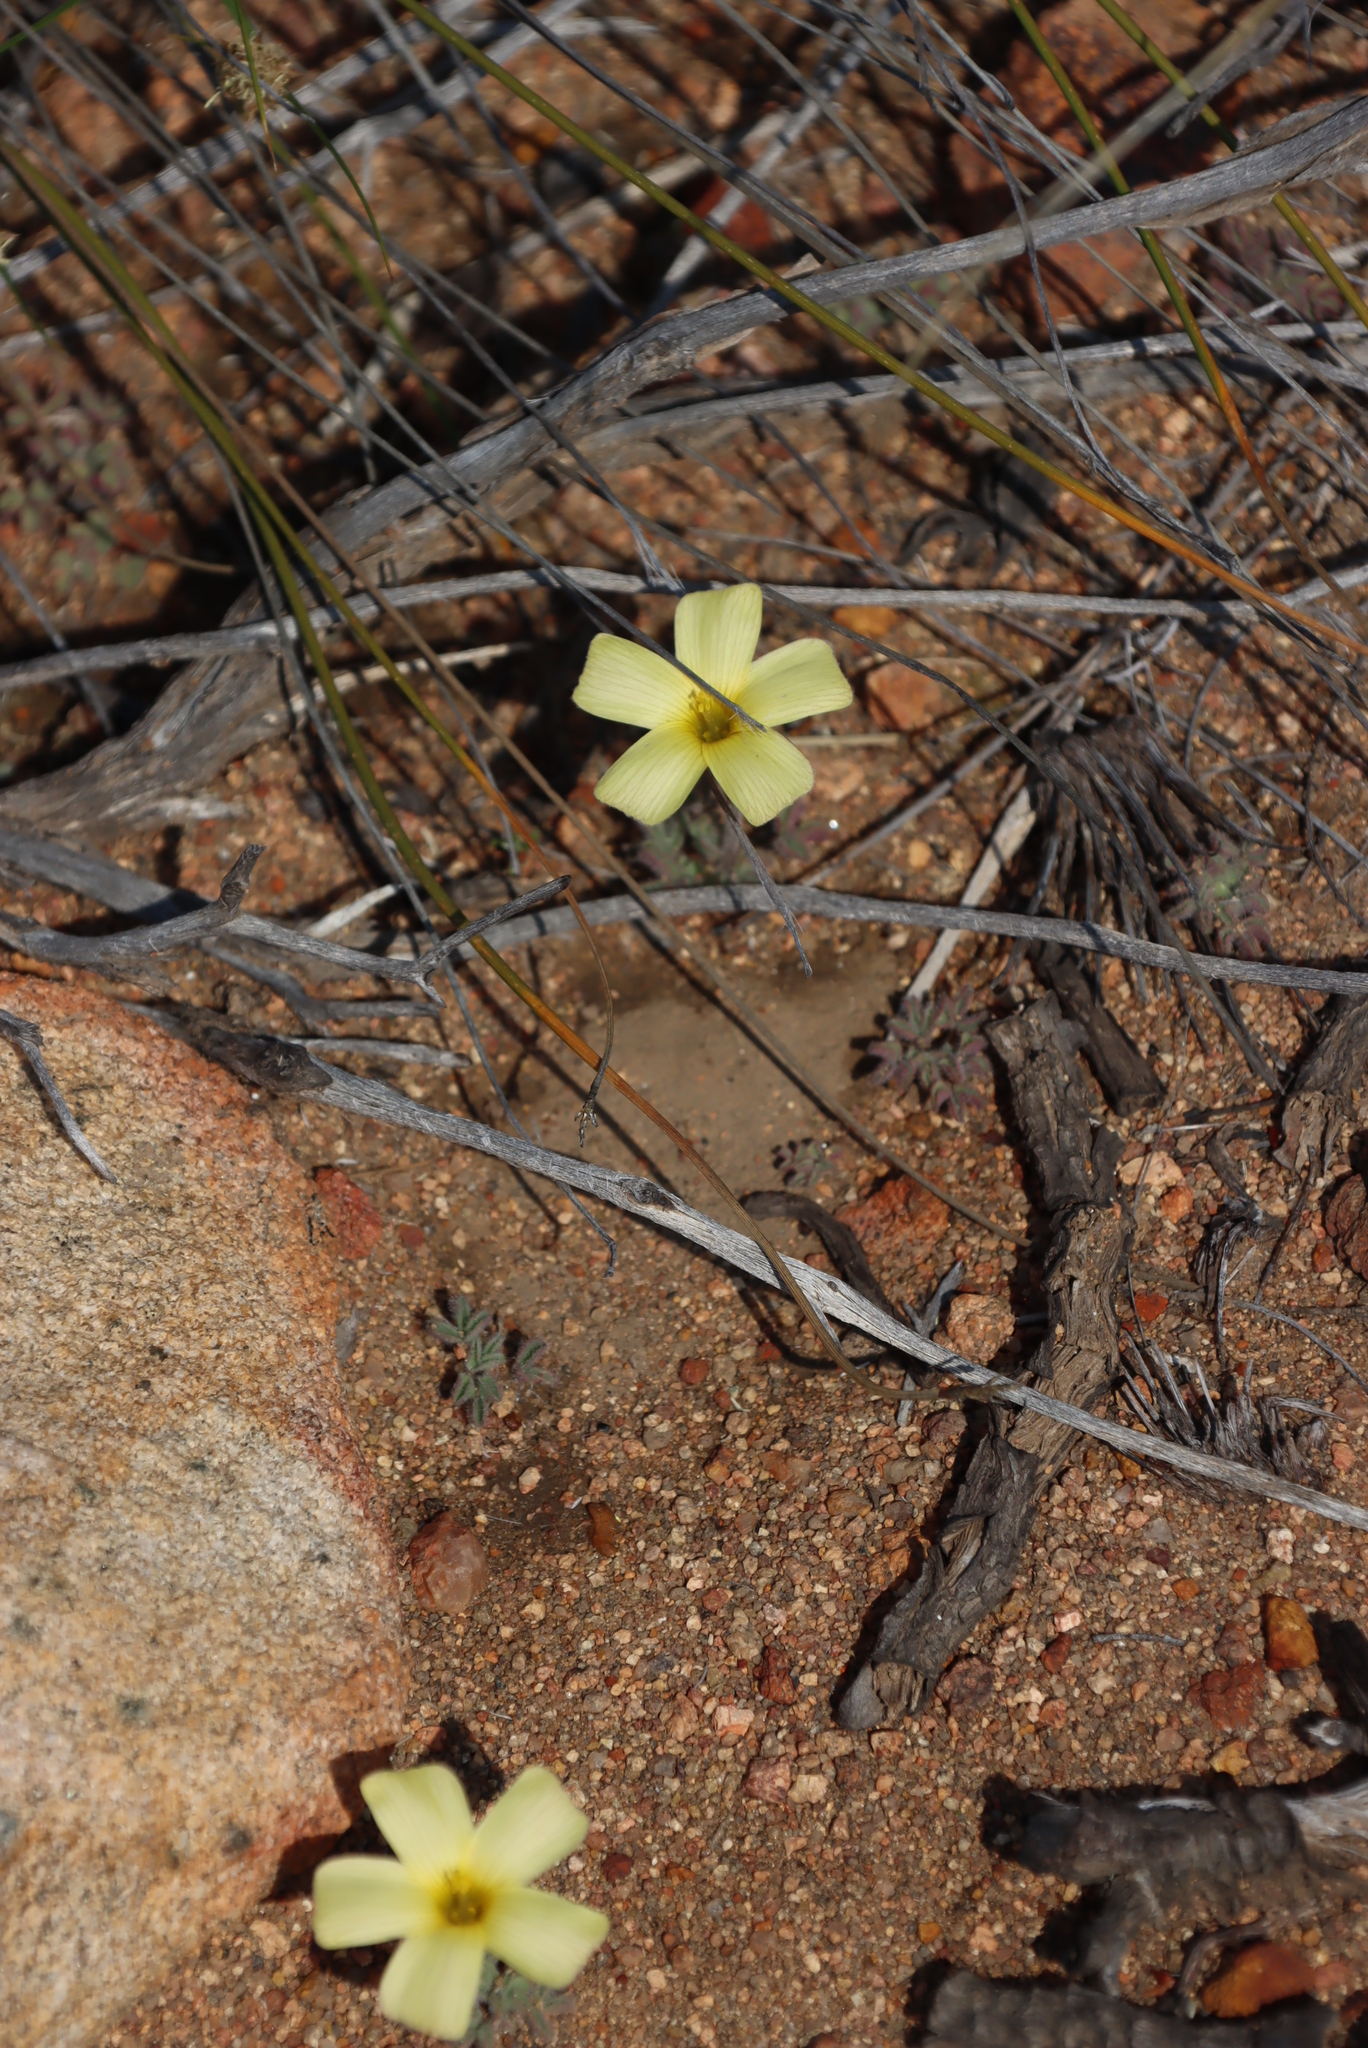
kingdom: Plantae
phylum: Tracheophyta
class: Magnoliopsida
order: Oxalidales
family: Oxalidaceae
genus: Oxalis
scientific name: Oxalis obtusa
